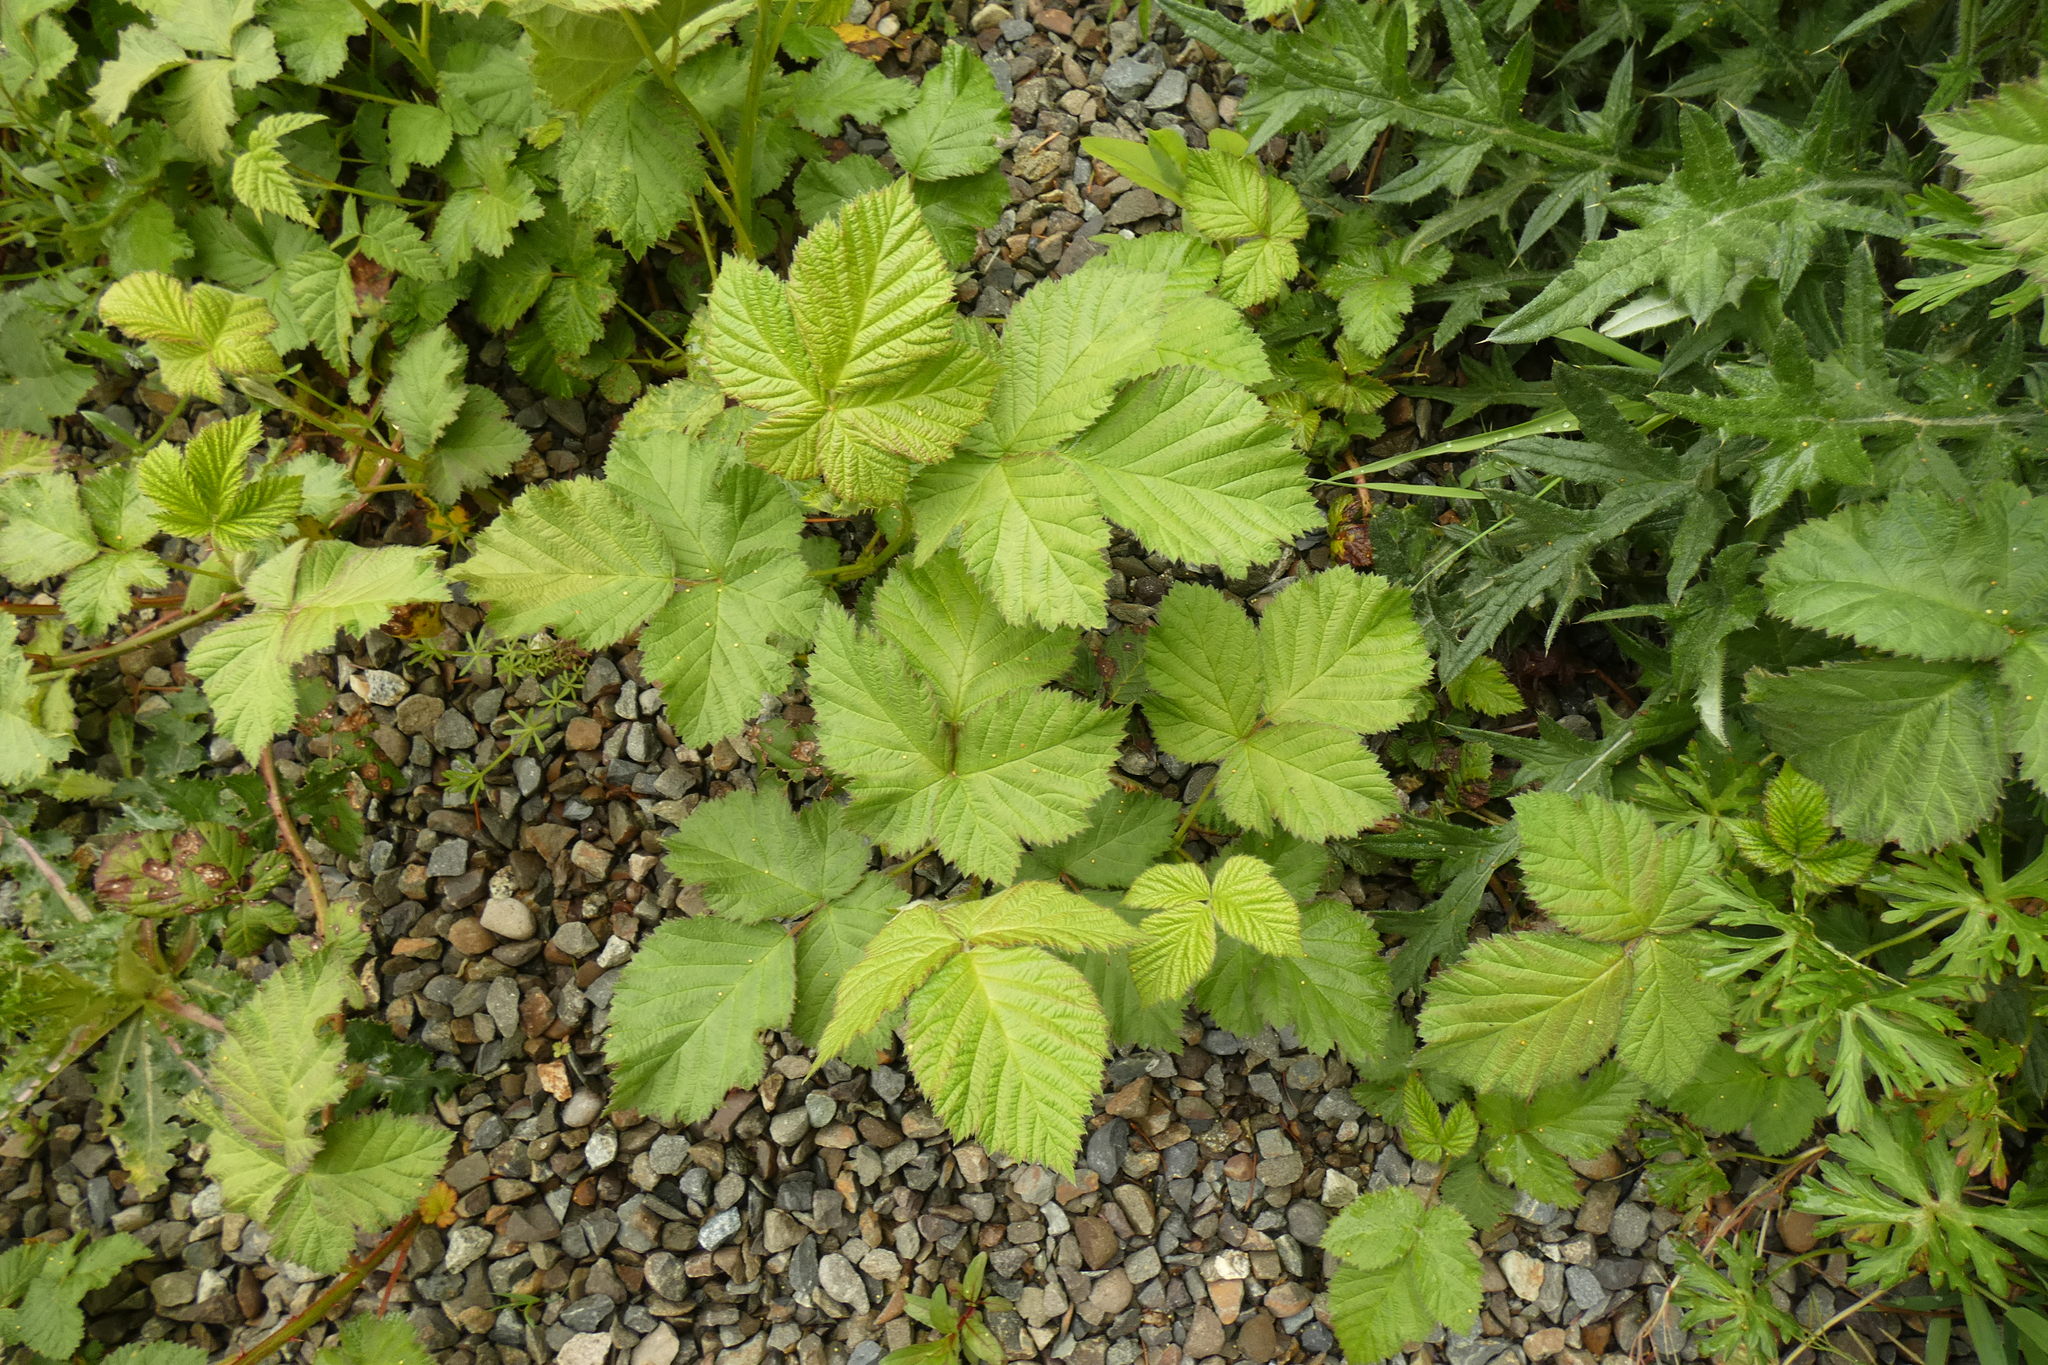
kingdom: Plantae
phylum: Tracheophyta
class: Magnoliopsida
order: Rosales
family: Rosaceae
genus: Rubus
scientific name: Rubus spectabilis
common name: Salmonberry
